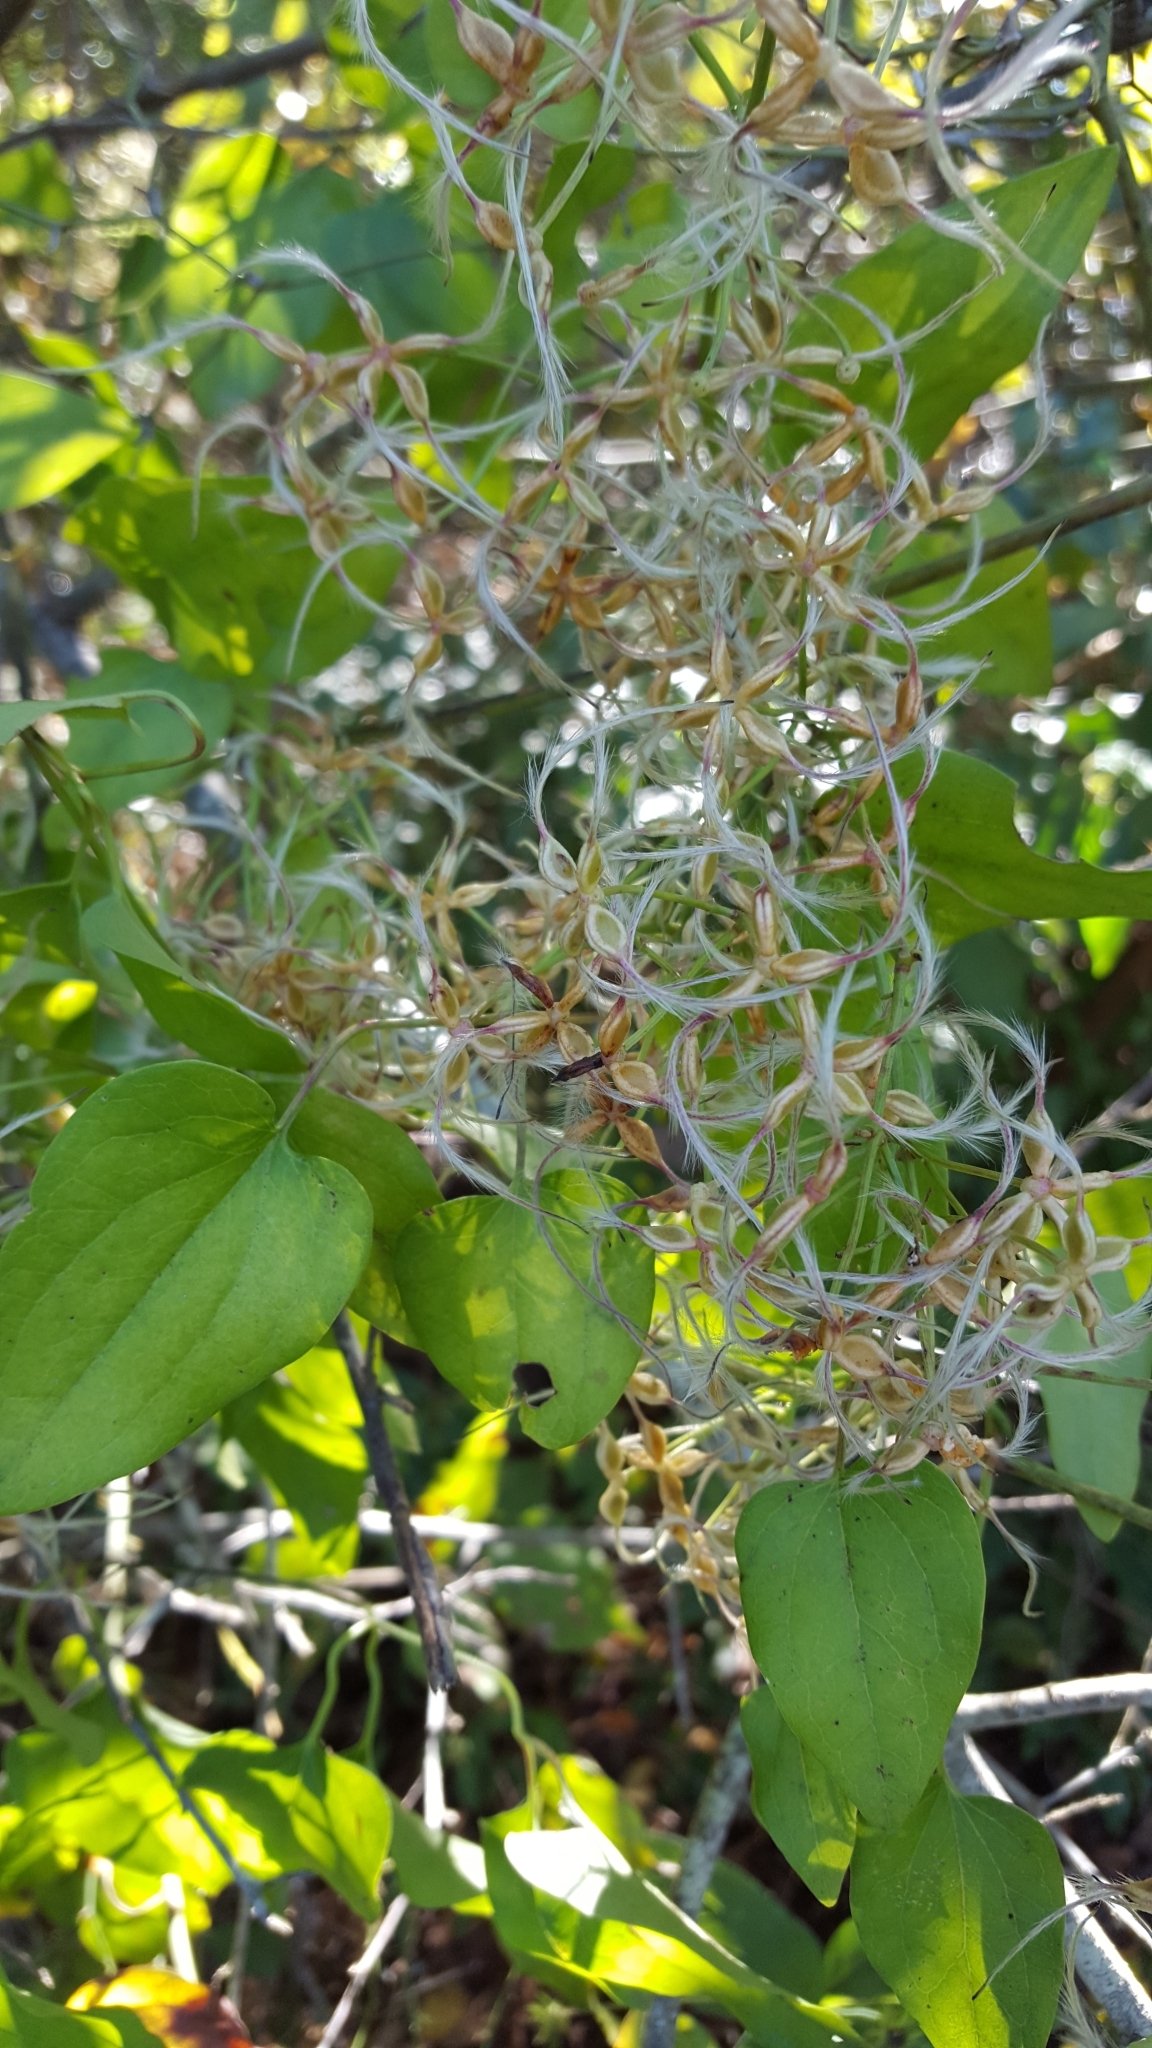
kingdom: Plantae
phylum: Tracheophyta
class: Magnoliopsida
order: Ranunculales
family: Ranunculaceae
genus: Clematis
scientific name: Clematis terniflora
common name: Sweet autumn clematis
